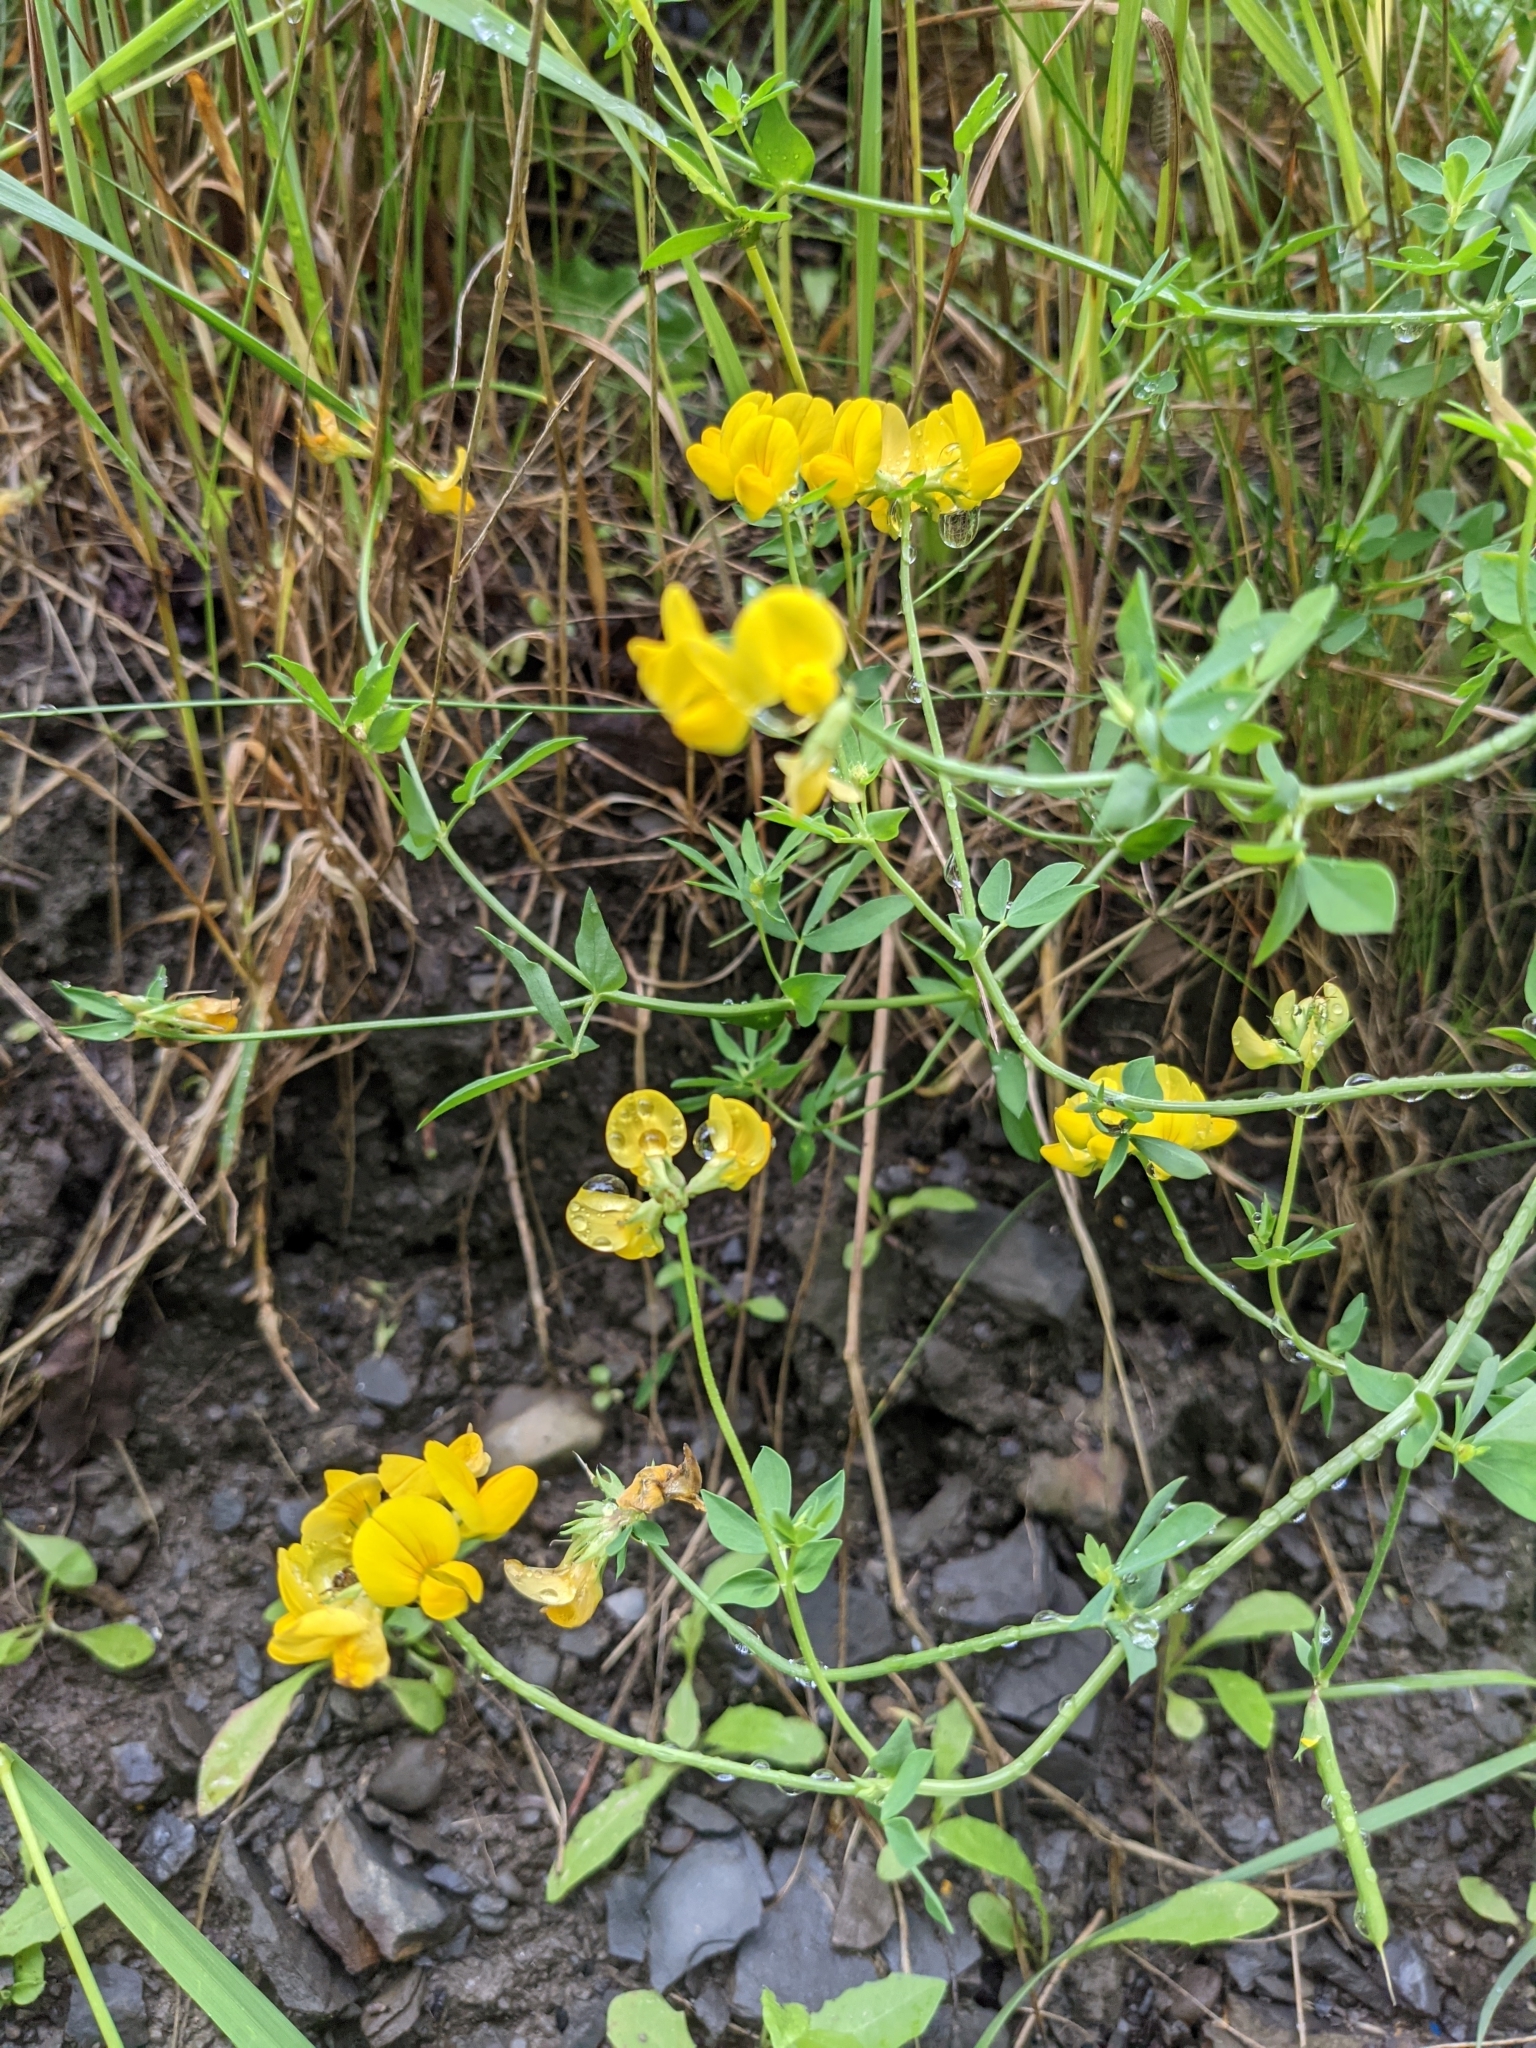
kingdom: Plantae
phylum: Tracheophyta
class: Magnoliopsida
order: Fabales
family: Fabaceae
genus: Lotus
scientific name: Lotus corniculatus
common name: Common bird's-foot-trefoil
